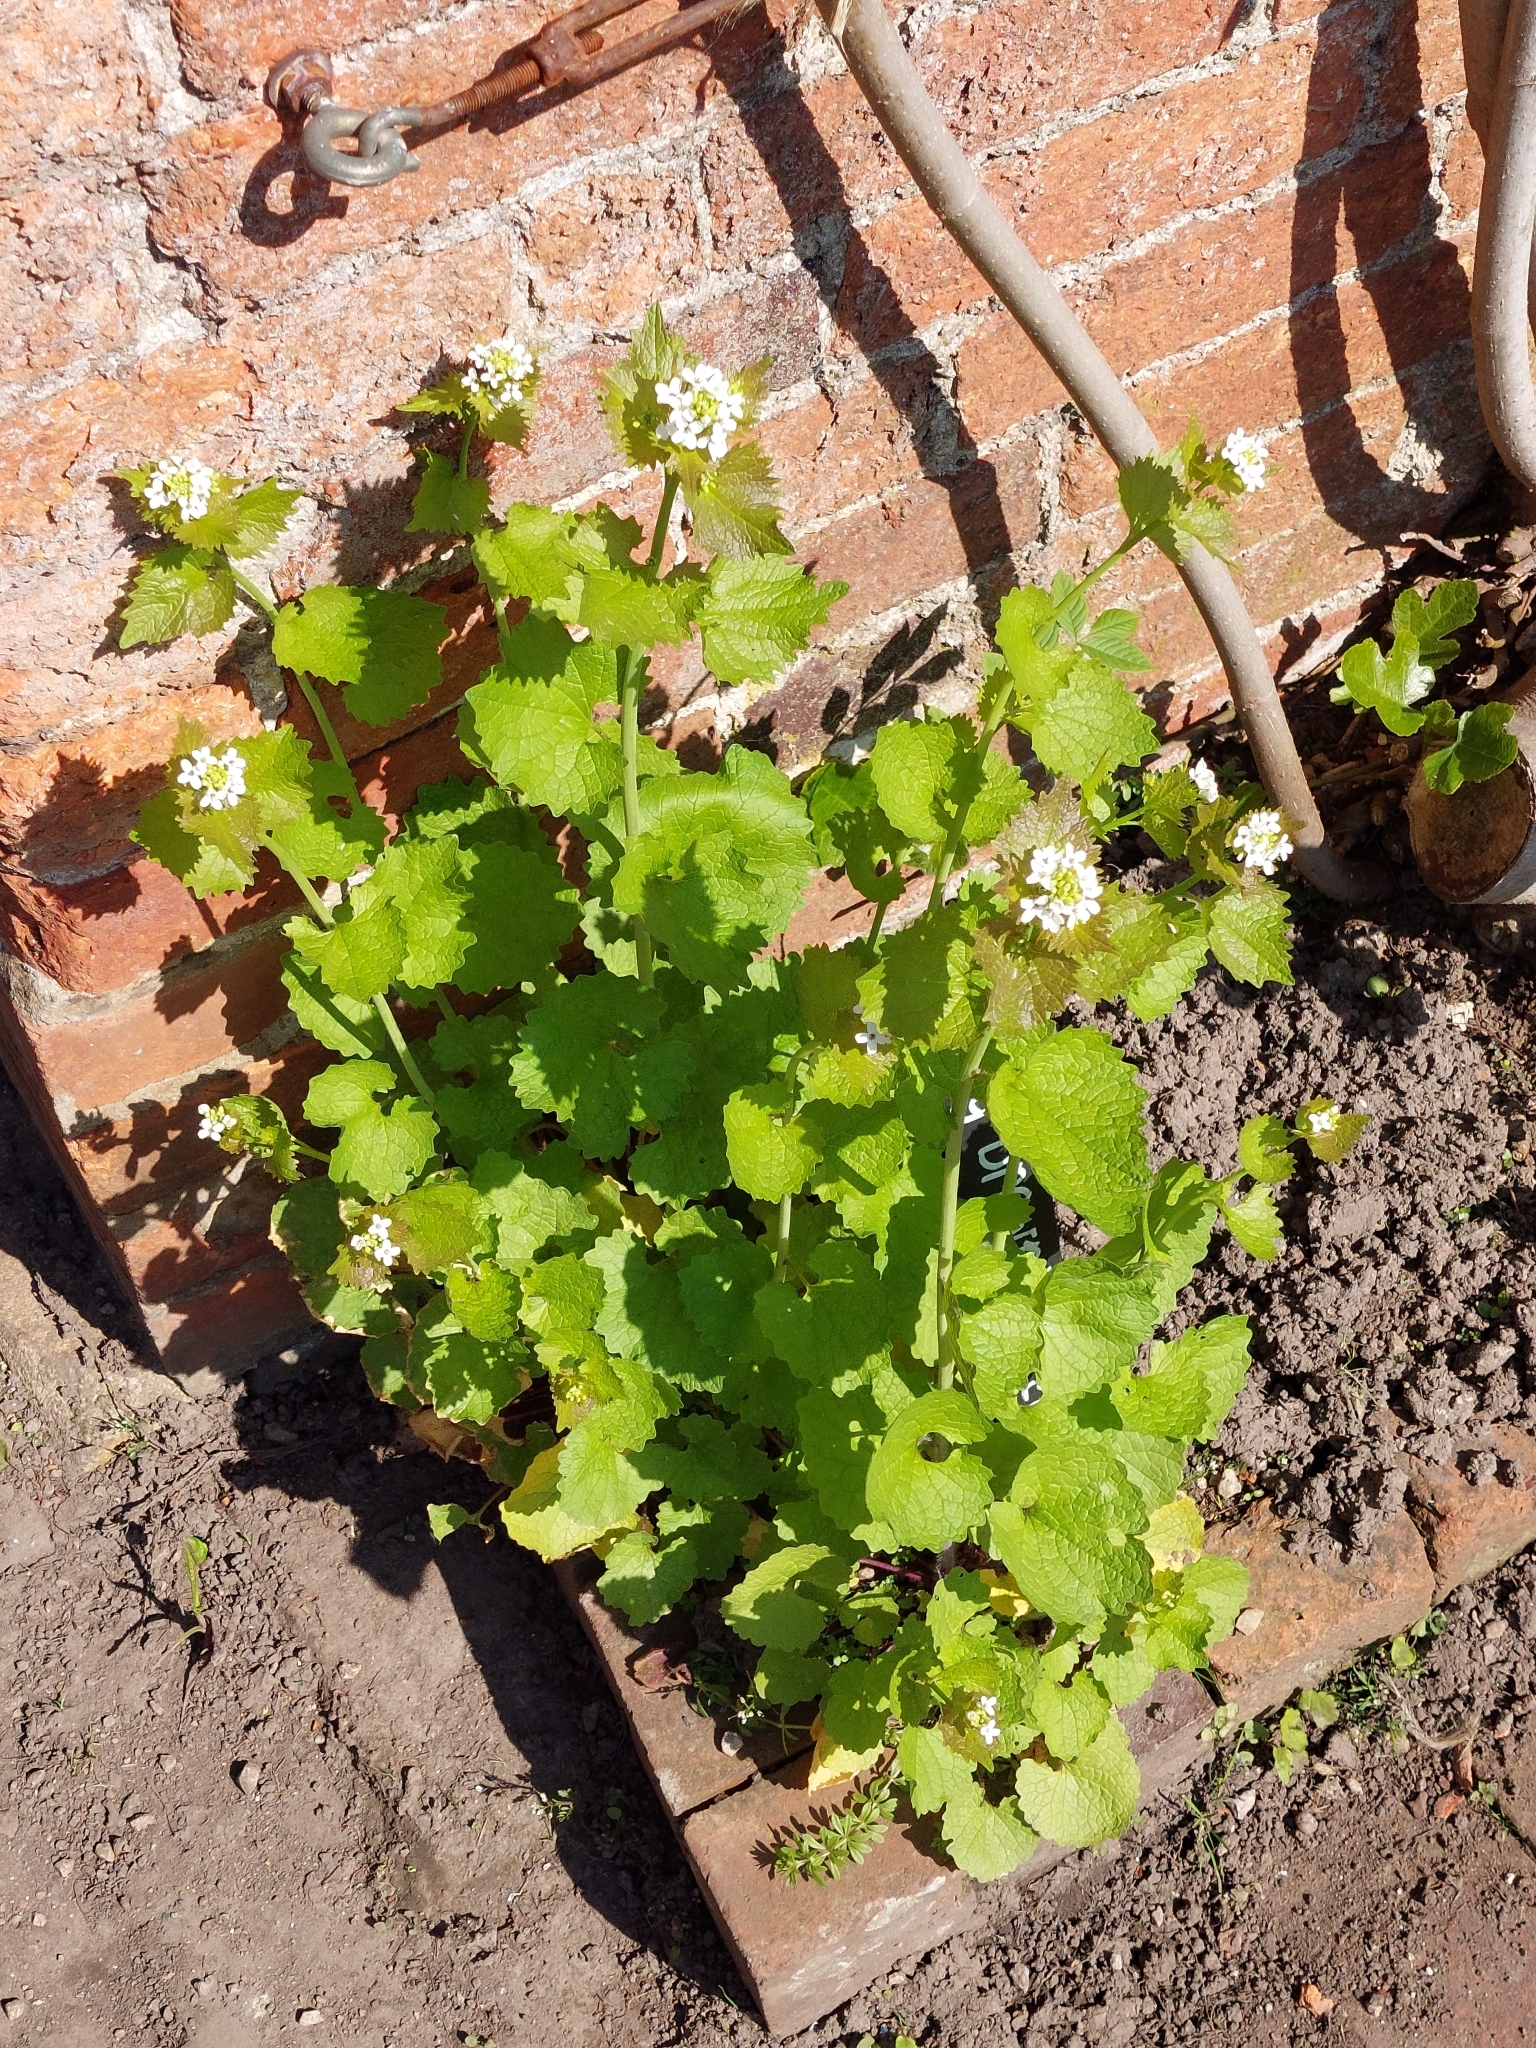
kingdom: Plantae
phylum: Tracheophyta
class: Magnoliopsida
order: Brassicales
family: Brassicaceae
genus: Alliaria
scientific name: Alliaria petiolata
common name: Garlic mustard
